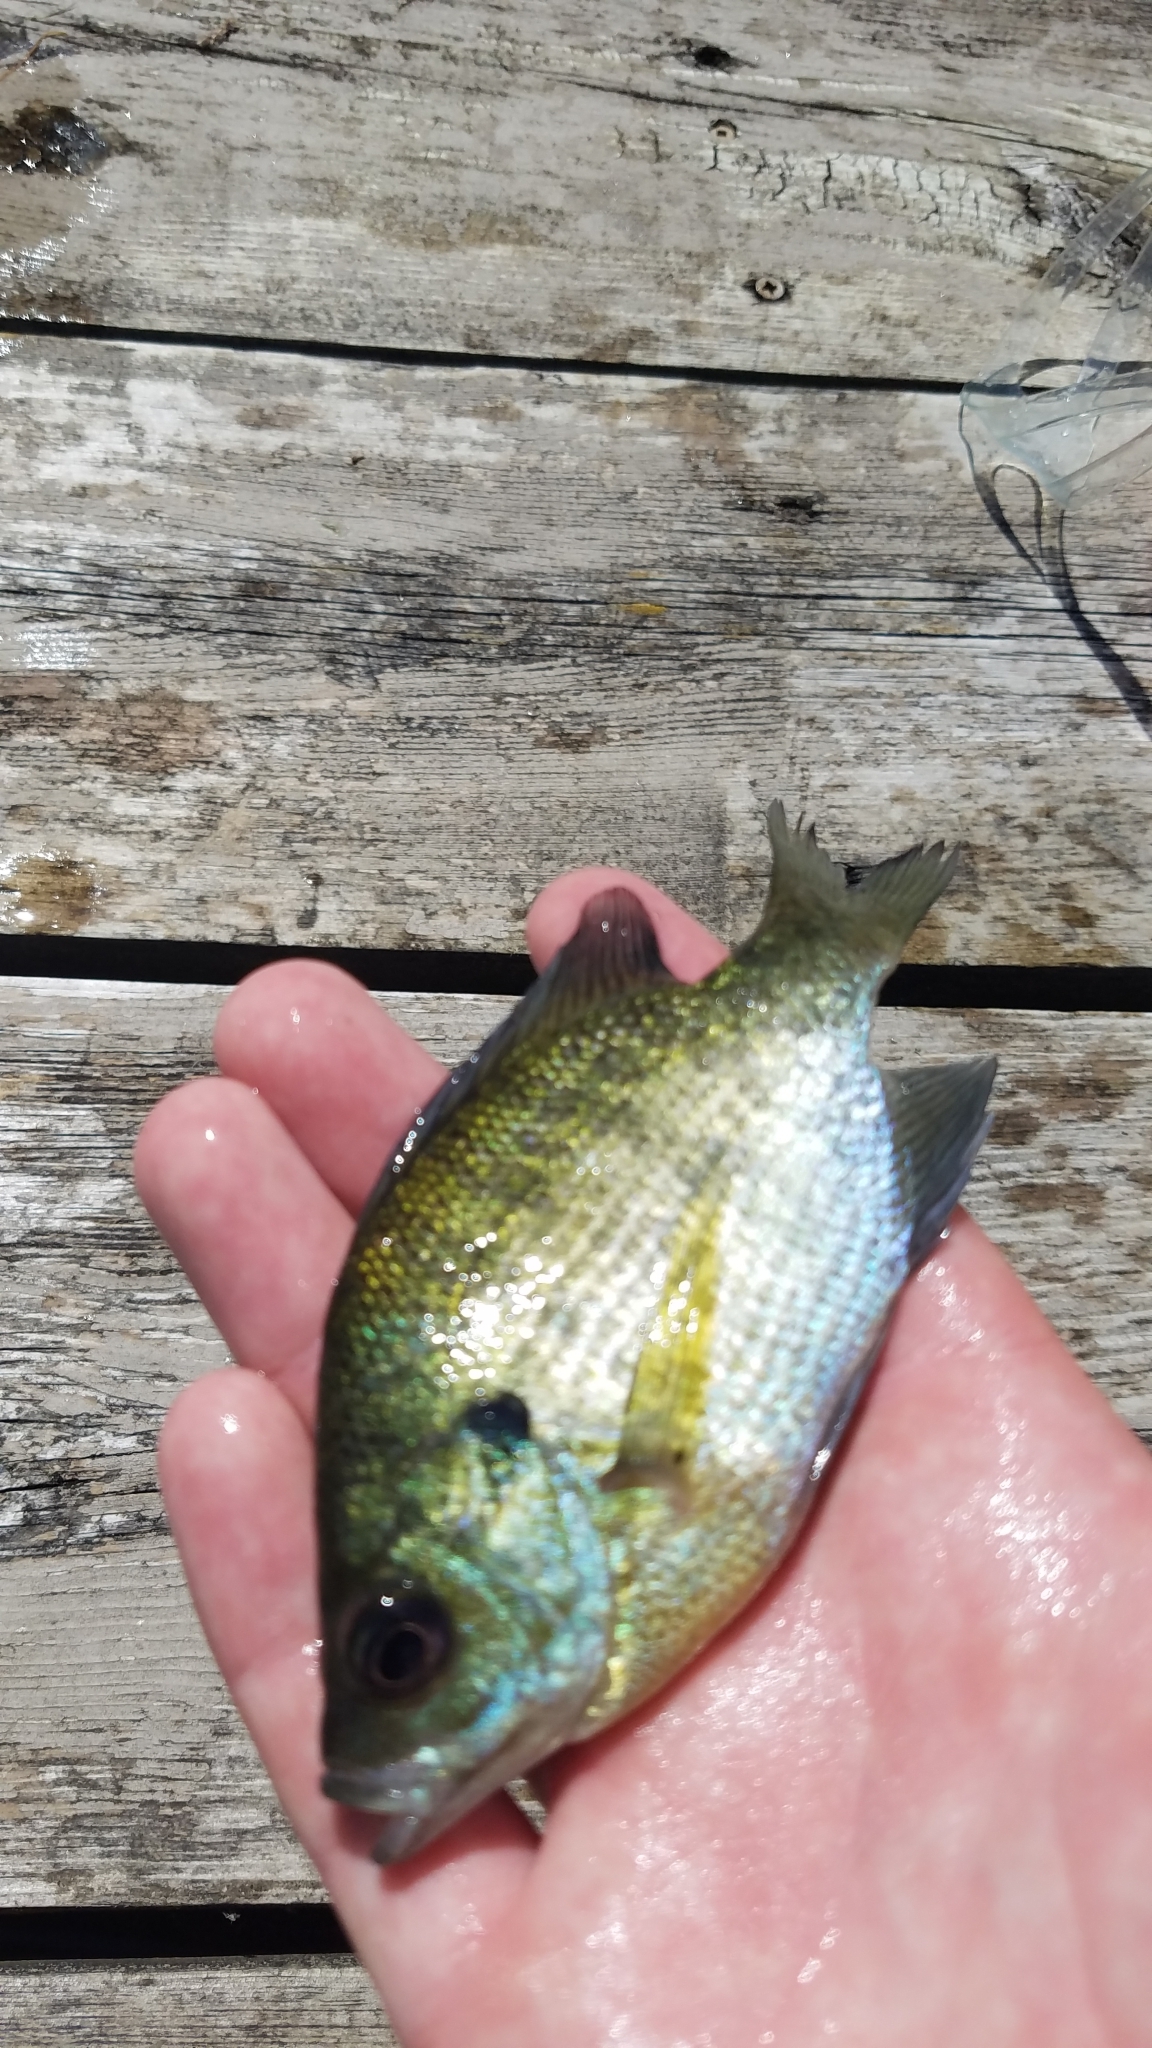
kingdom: Animalia
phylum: Chordata
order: Perciformes
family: Centrarchidae
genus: Lepomis
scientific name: Lepomis macrochirus
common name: Bluegill
